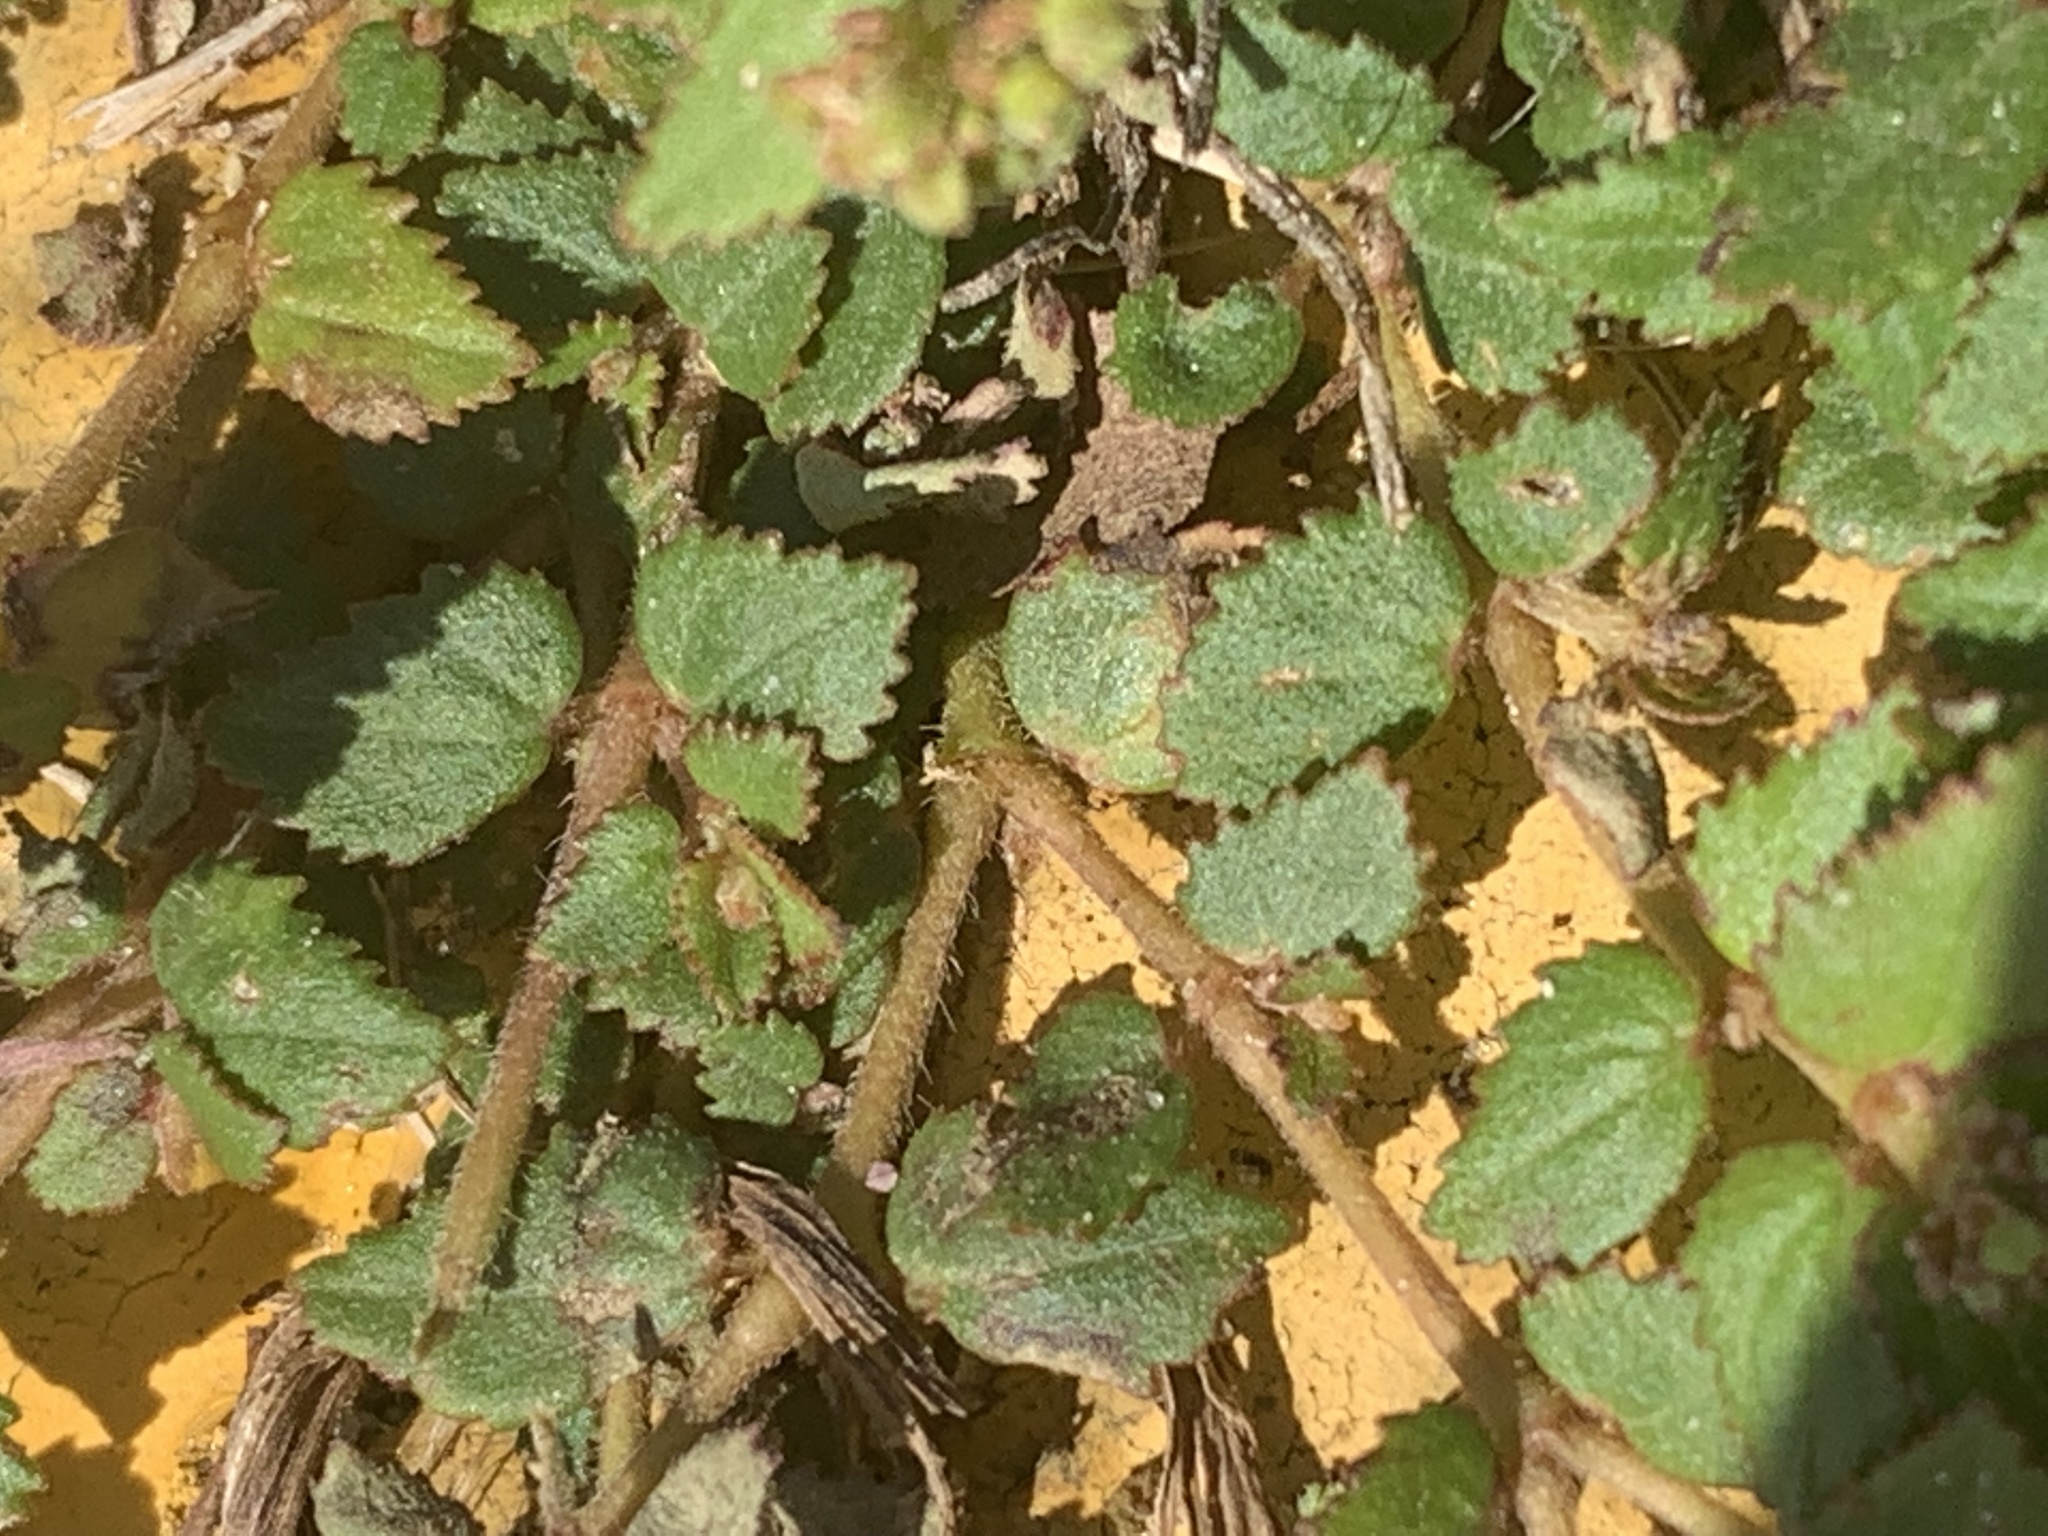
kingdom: Plantae
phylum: Tracheophyta
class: Magnoliopsida
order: Malpighiales
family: Euphorbiaceae
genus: Euphorbia
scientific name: Euphorbia ophthalmica
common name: Florida hammock sandmat
